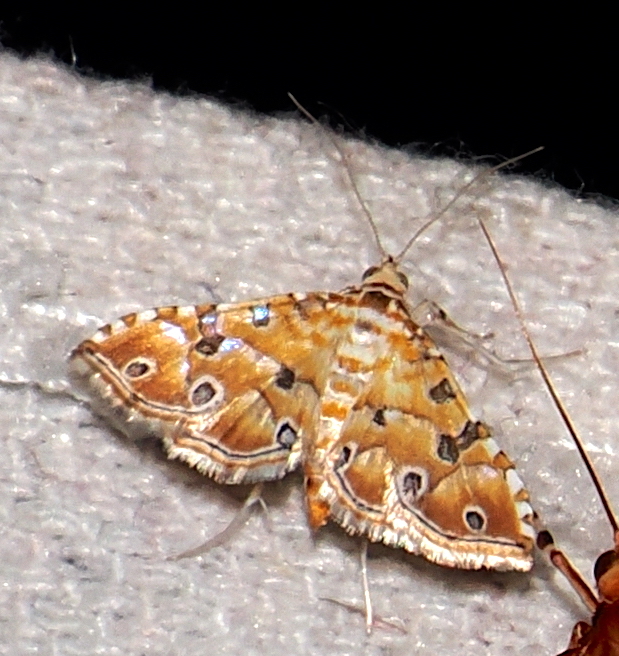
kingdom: Animalia
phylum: Arthropoda
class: Insecta
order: Lepidoptera
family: Crambidae
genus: Ommatospila
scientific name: Ommatospila narcaeusalis
